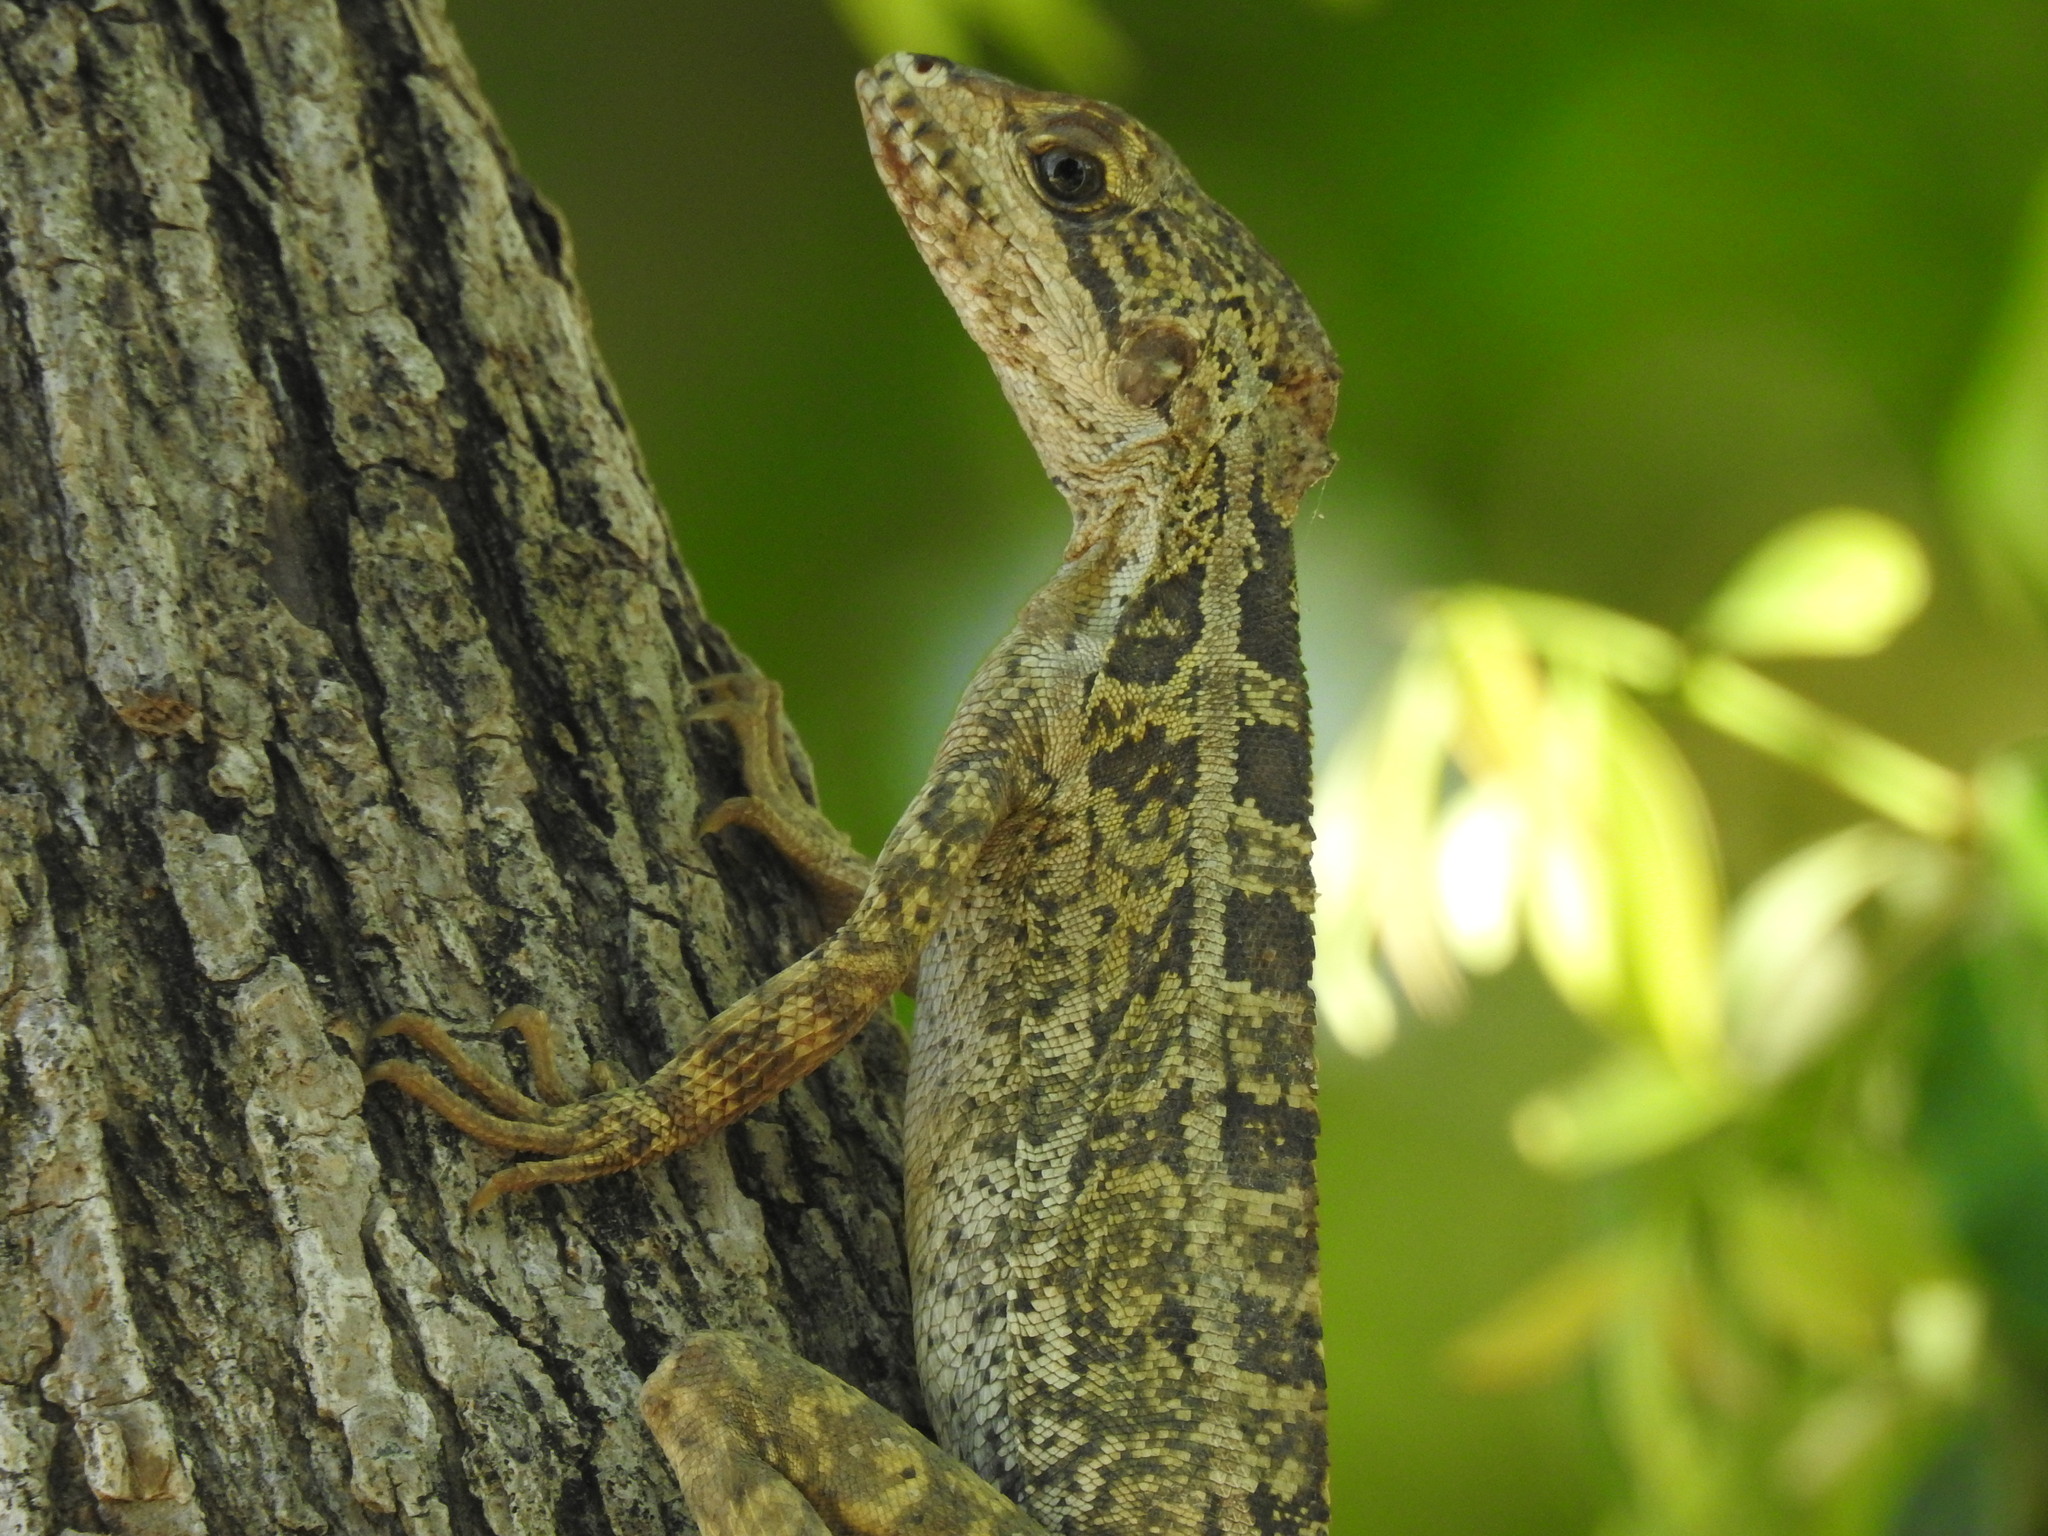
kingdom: Animalia
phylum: Chordata
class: Squamata
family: Corytophanidae
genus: Basiliscus
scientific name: Basiliscus vittatus
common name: Brown basilisk
